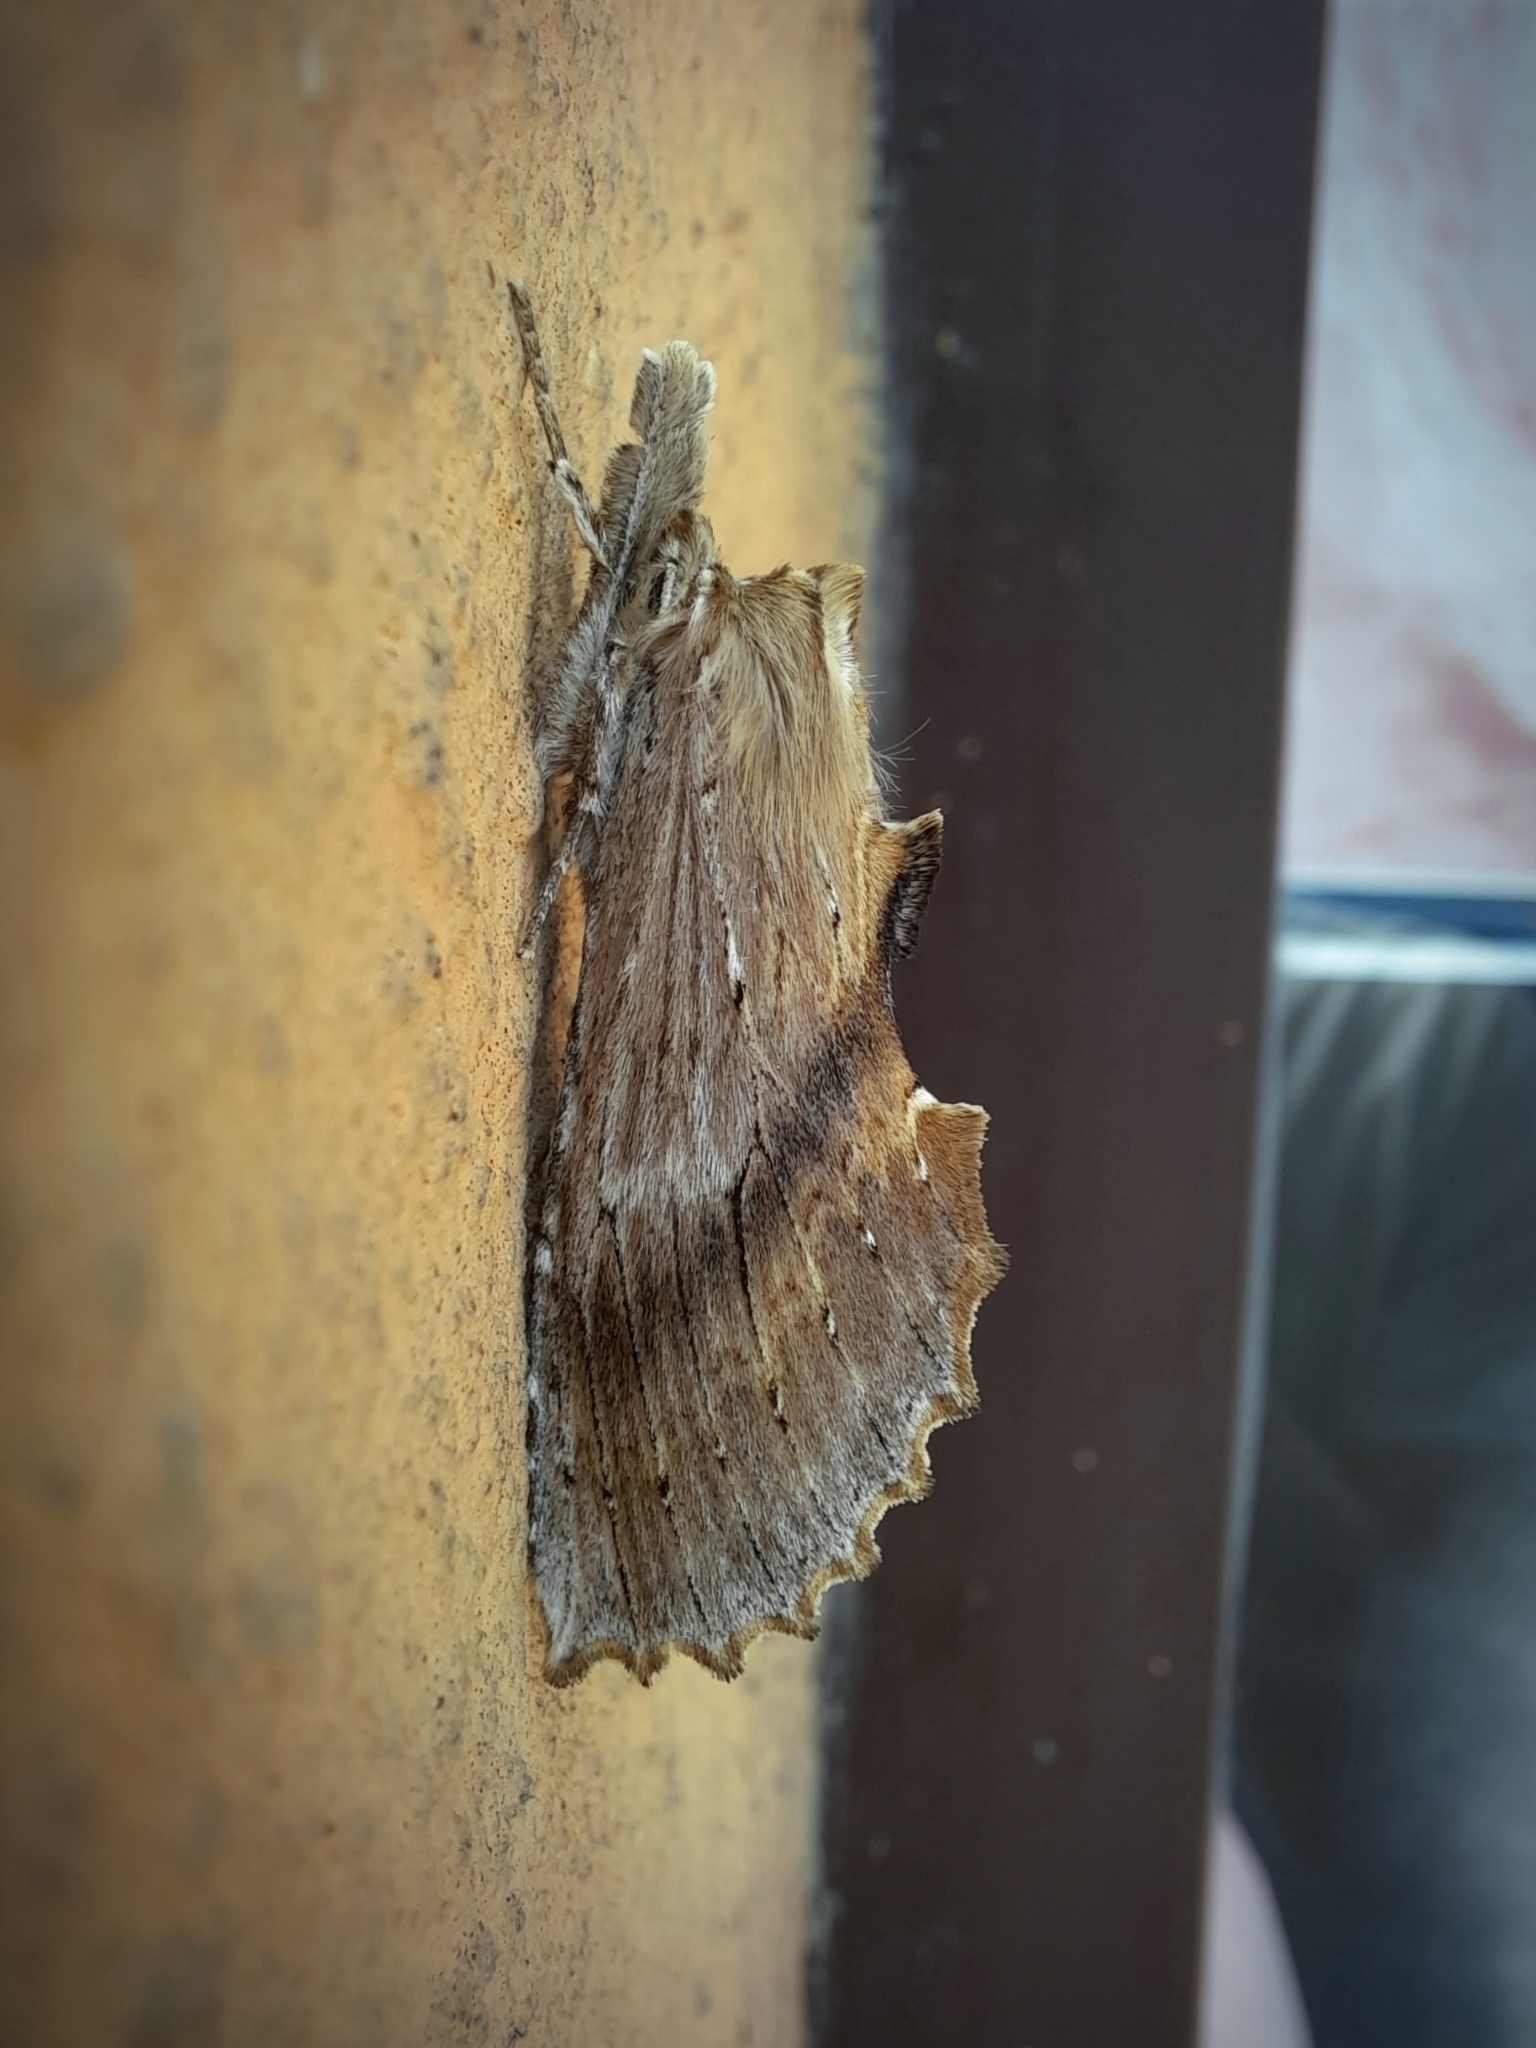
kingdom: Animalia
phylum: Arthropoda
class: Insecta
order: Lepidoptera
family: Notodontidae
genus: Pterostoma
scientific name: Pterostoma palpina
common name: Pale prominent
